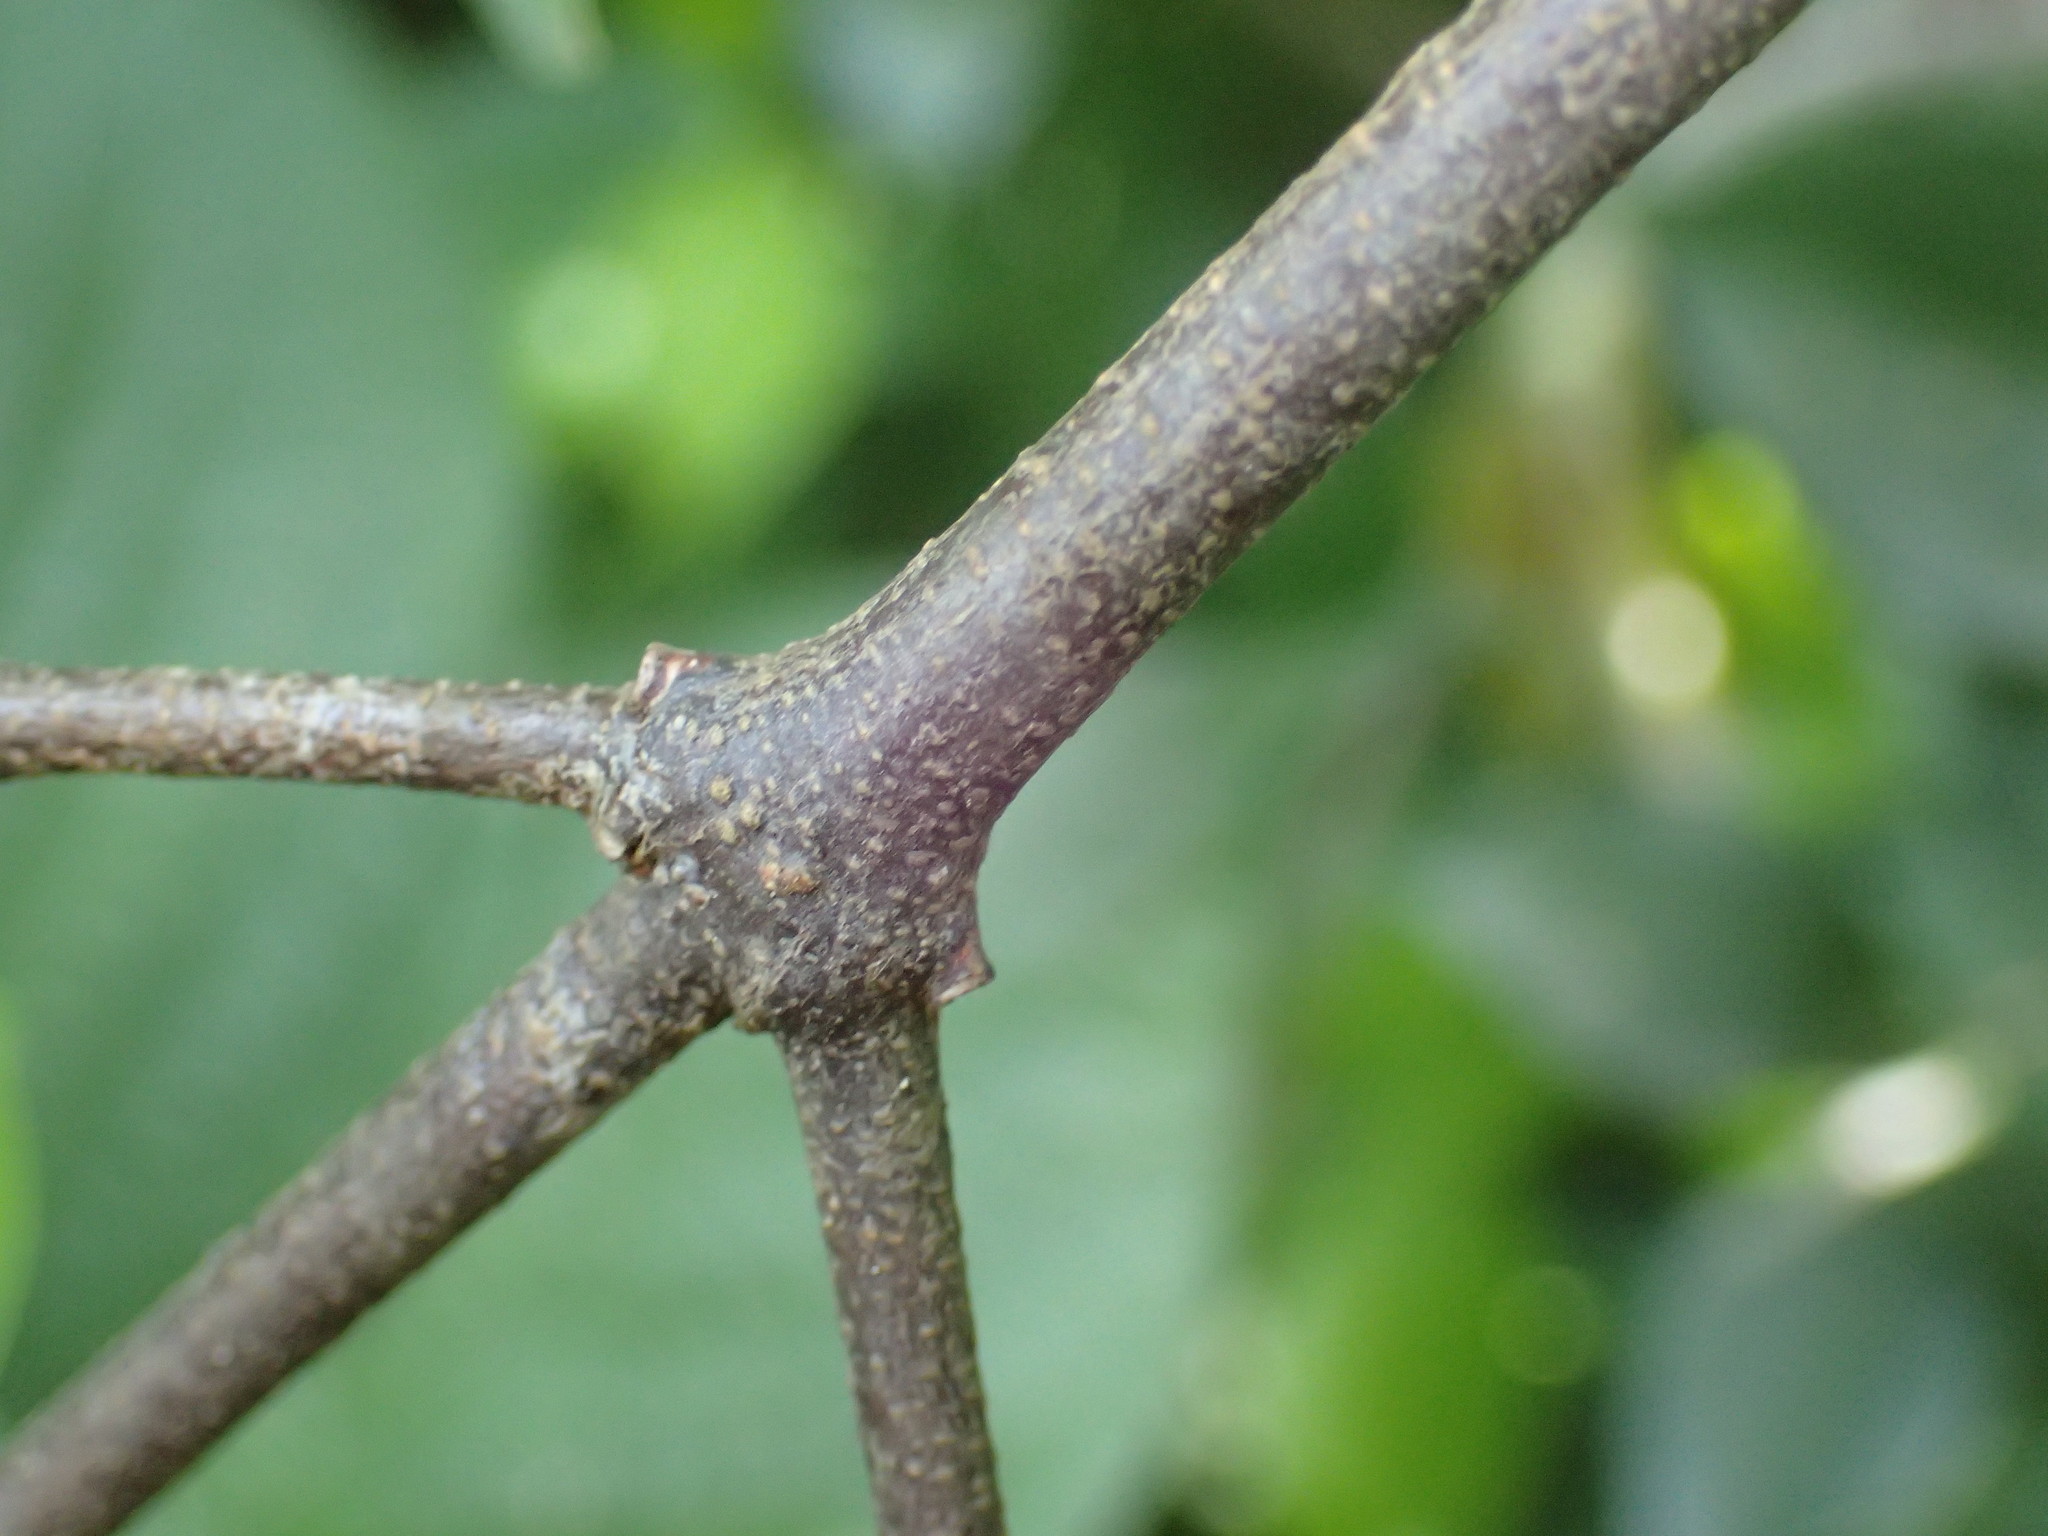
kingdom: Plantae
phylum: Tracheophyta
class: Magnoliopsida
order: Gentianales
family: Loganiaceae
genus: Strychnos
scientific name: Strychnos usambarensis
